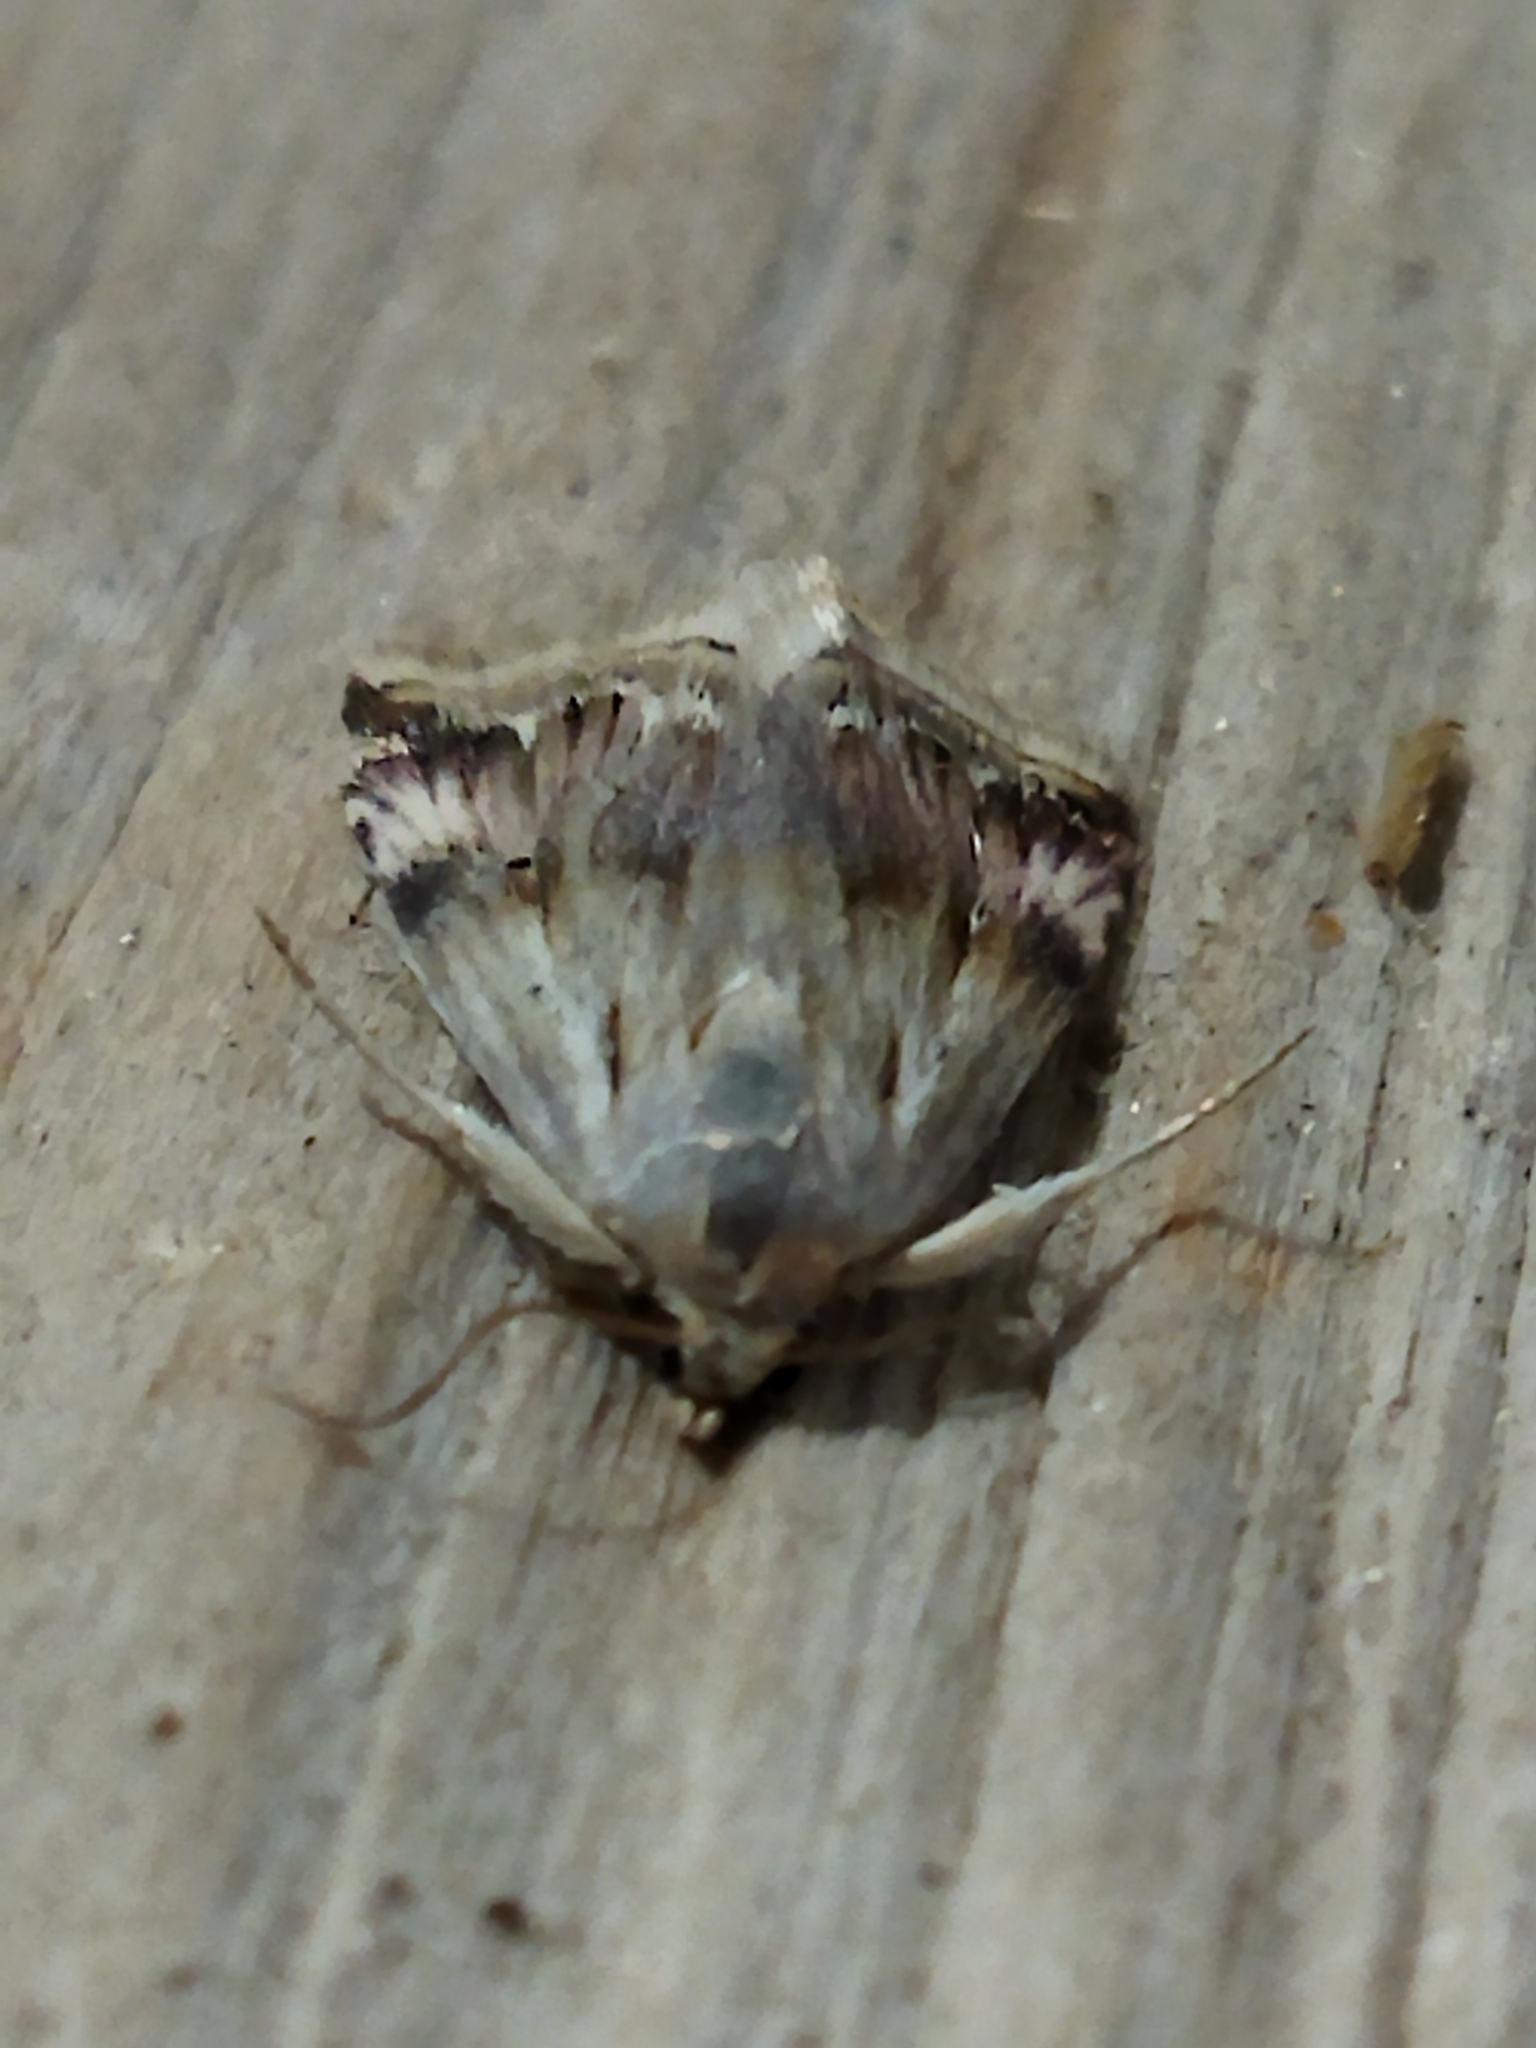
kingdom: Animalia
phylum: Arthropoda
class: Insecta
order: Lepidoptera
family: Noctuidae
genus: Eublemma
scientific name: Eublemma ostrina
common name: Purple marbled
